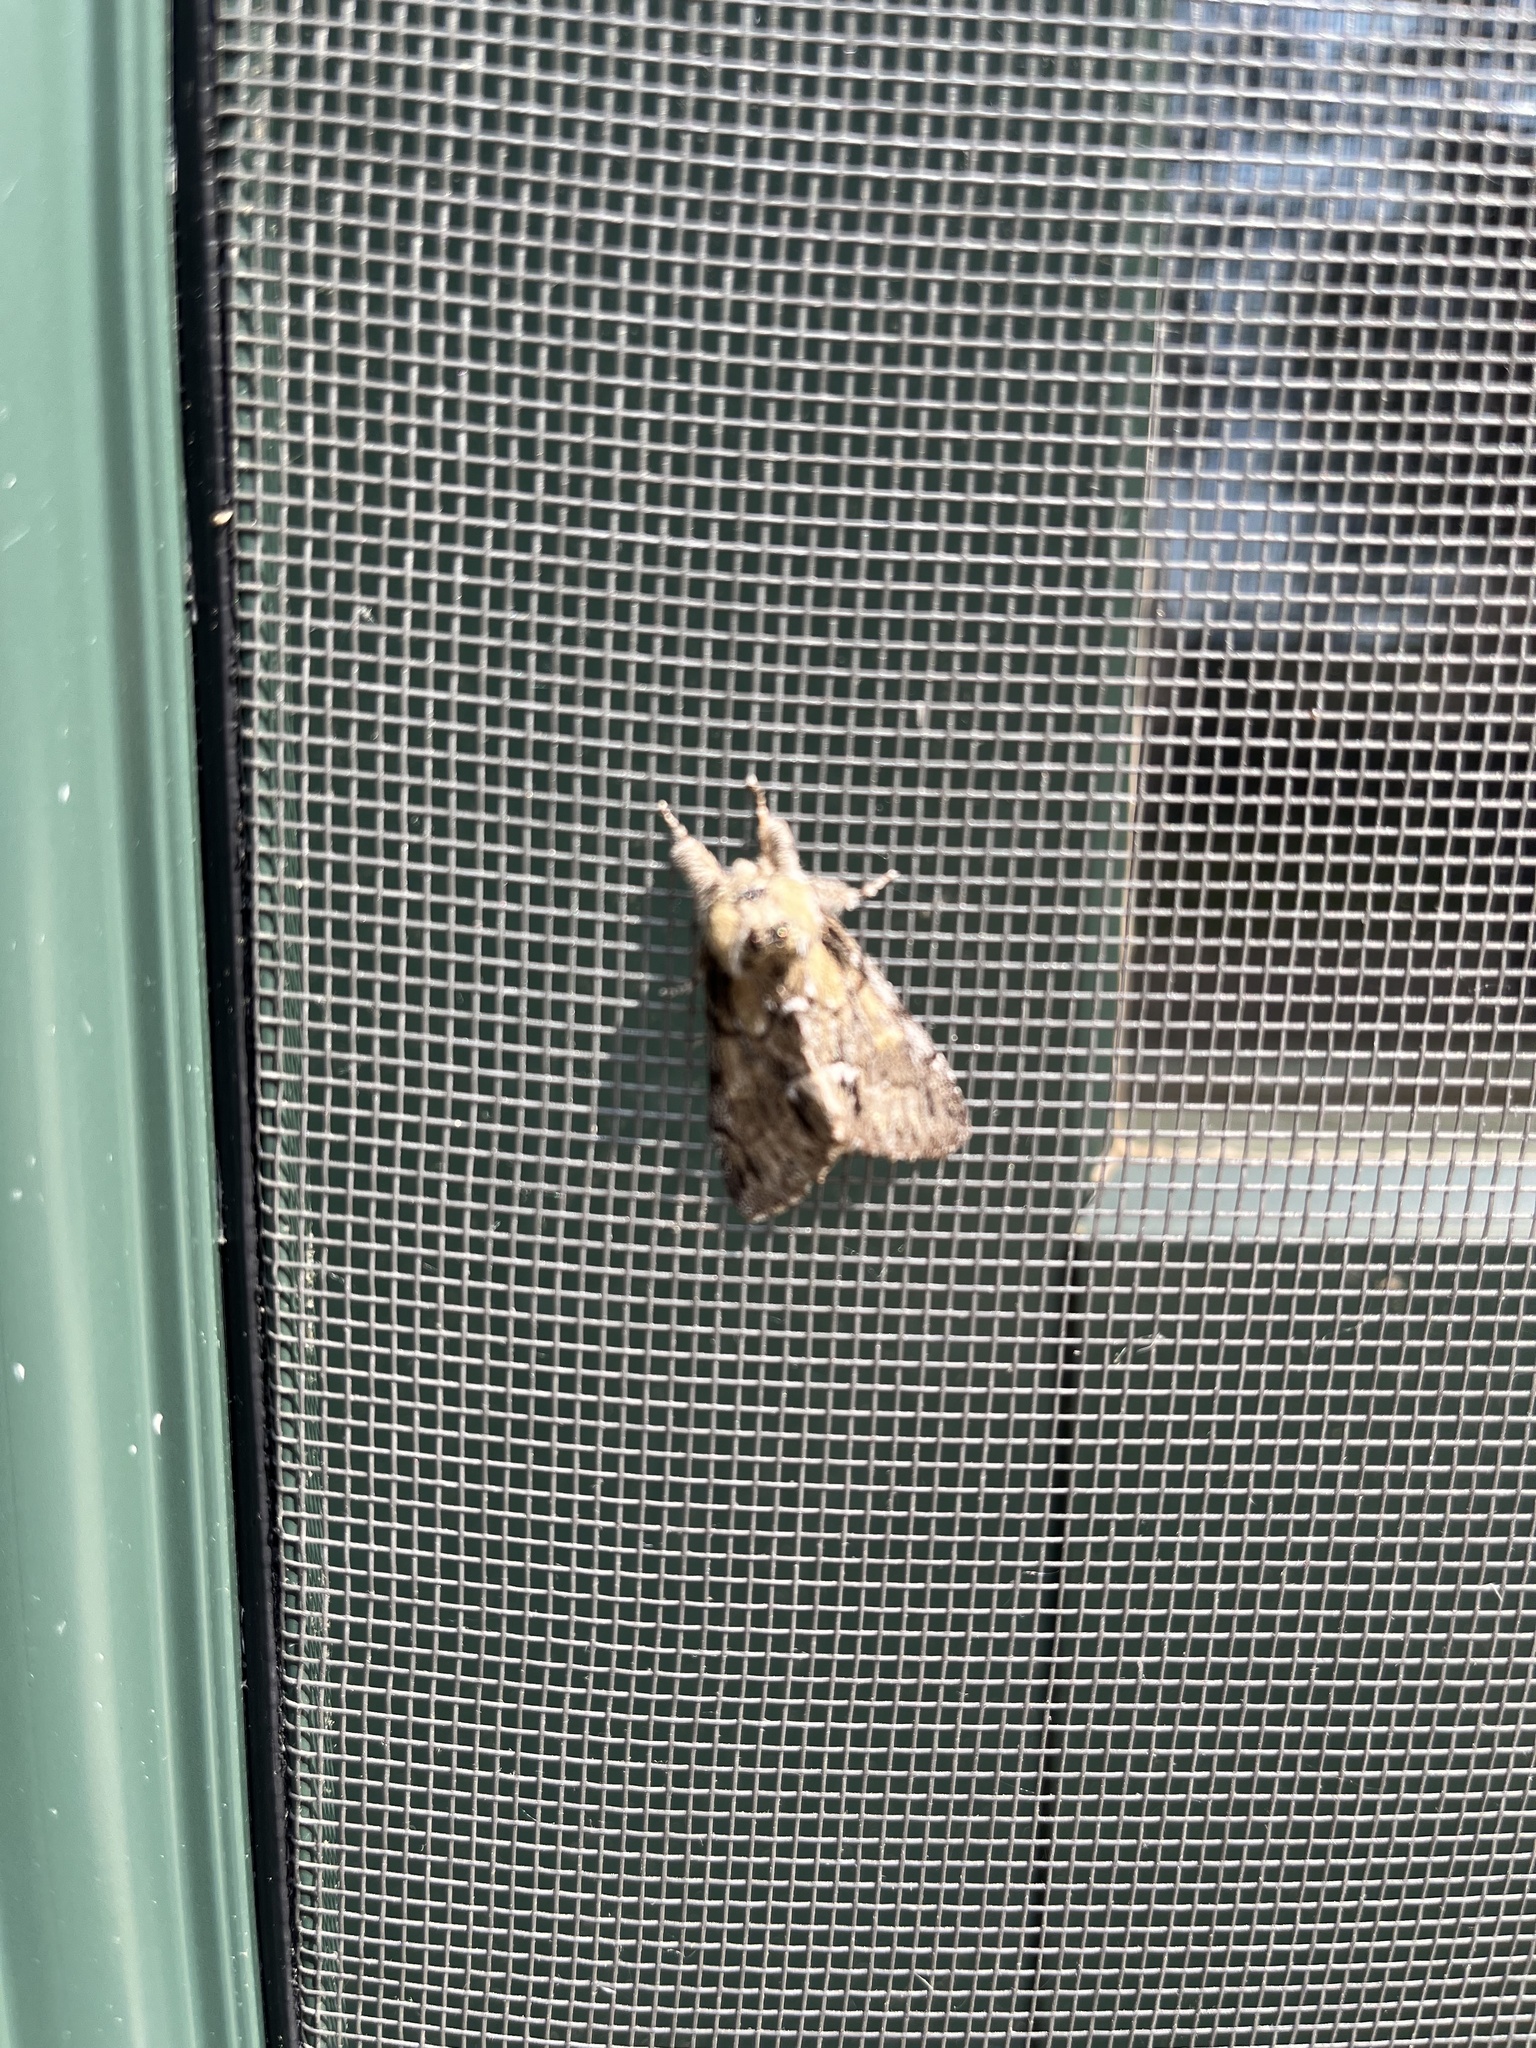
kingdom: Animalia
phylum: Arthropoda
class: Insecta
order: Lepidoptera
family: Notodontidae
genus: Paraeschra
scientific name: Paraeschra georgica
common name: Georgian prominent
